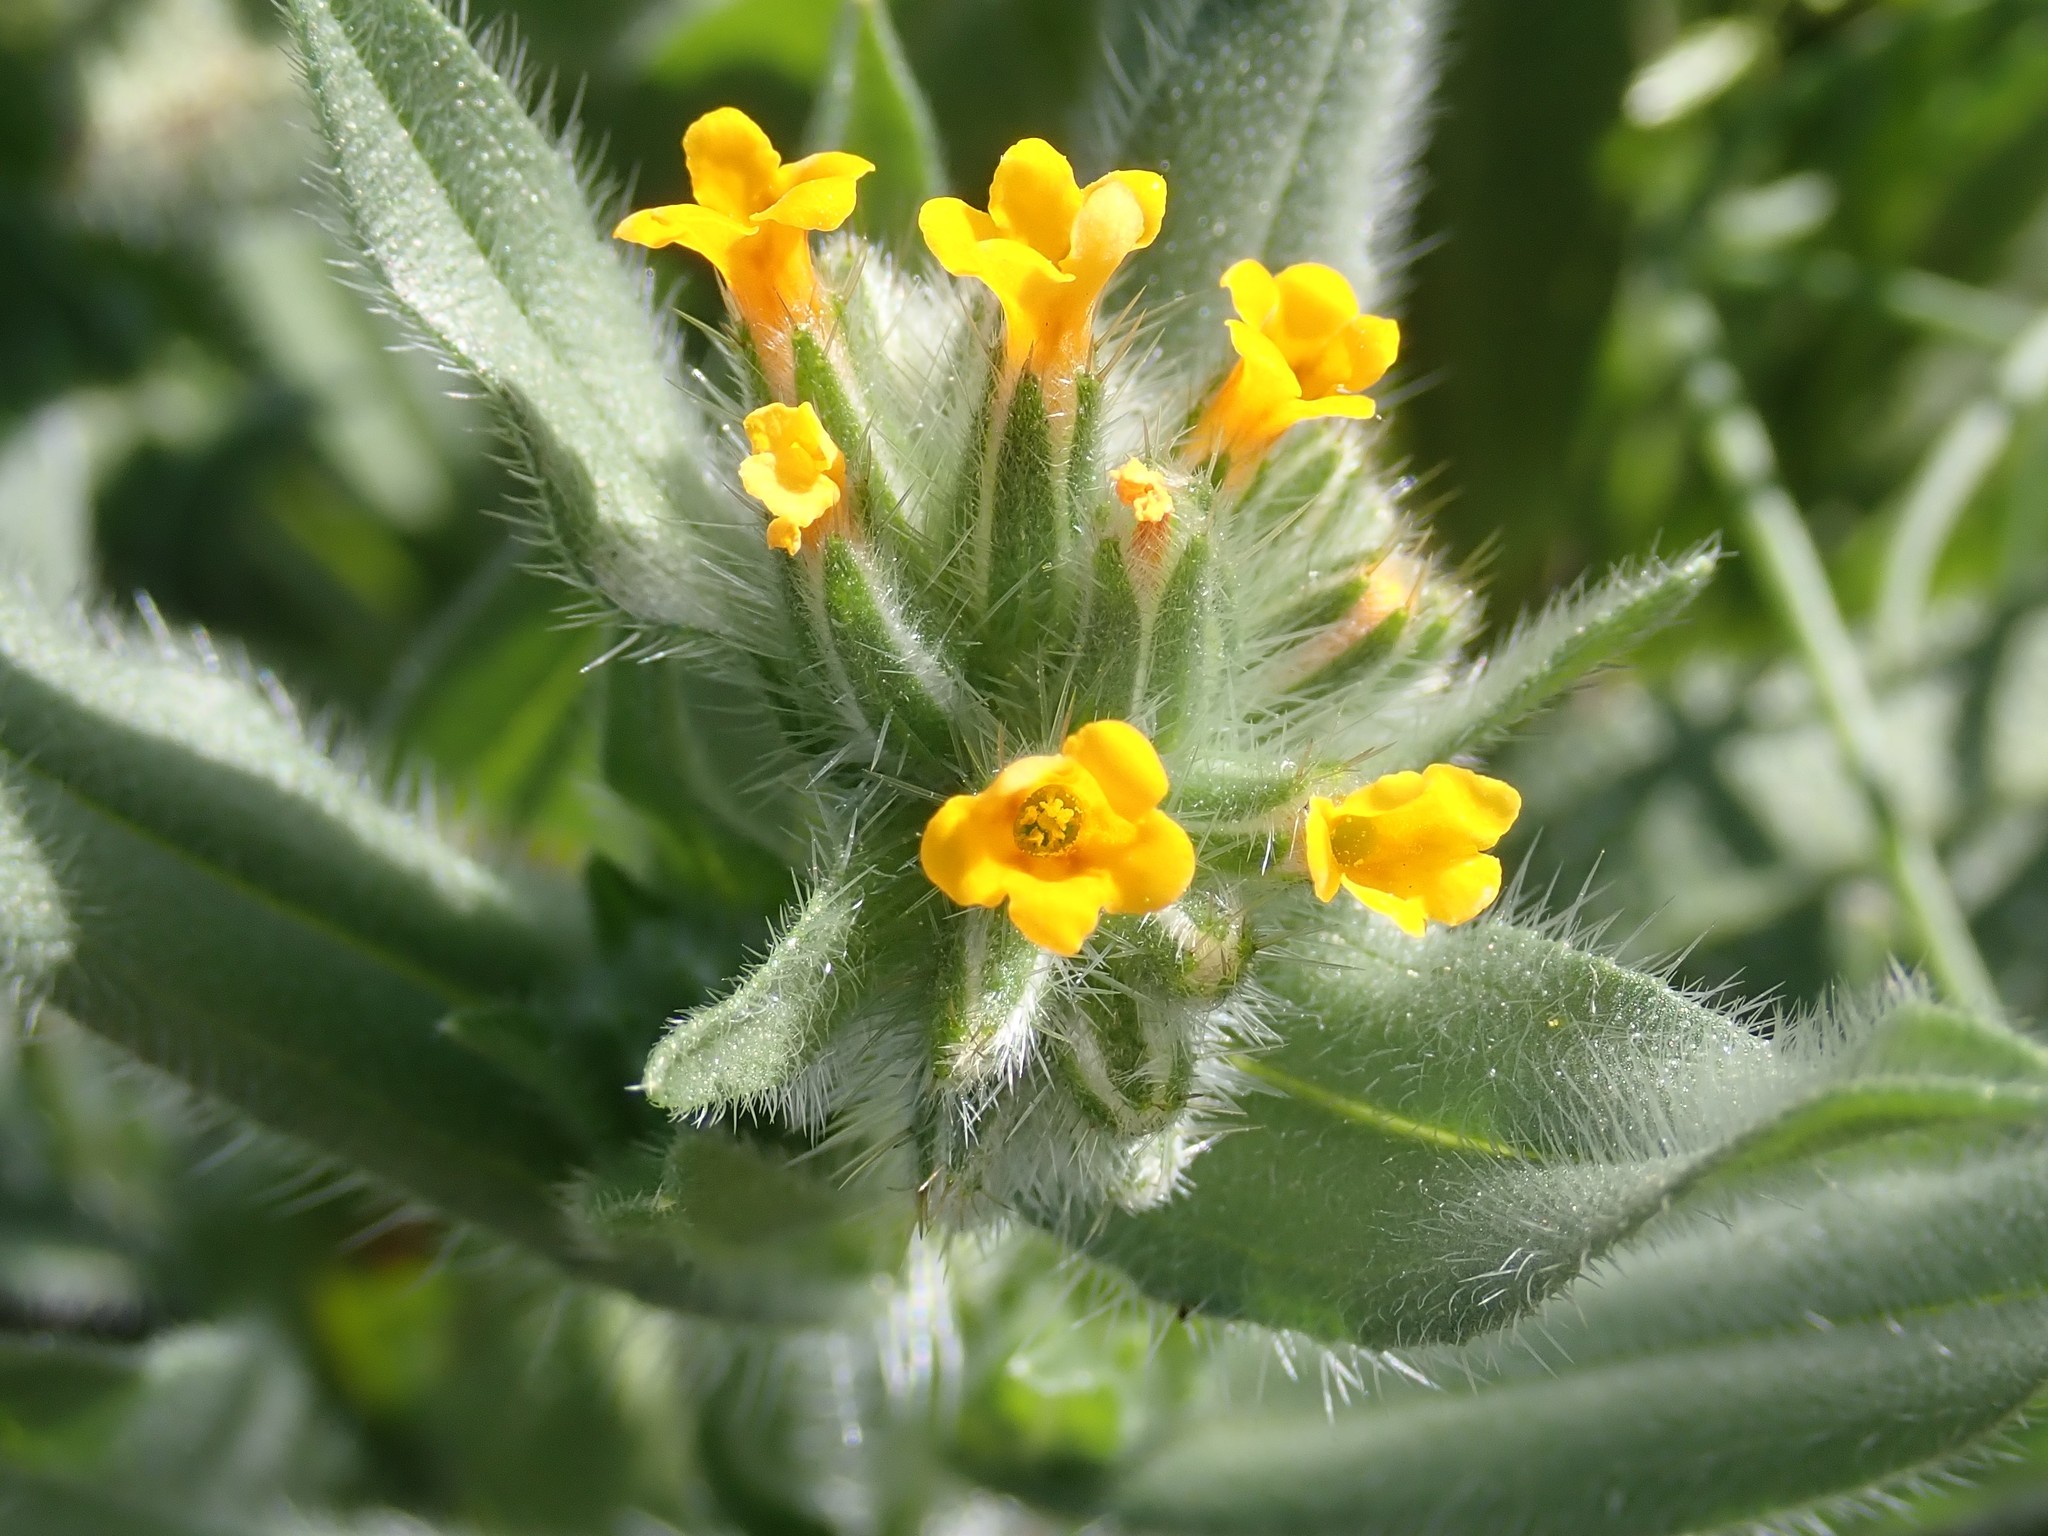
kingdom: Plantae
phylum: Tracheophyta
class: Magnoliopsida
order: Boraginales
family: Boraginaceae
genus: Amsinckia
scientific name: Amsinckia tessellata
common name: Tessellate fiddleneck
